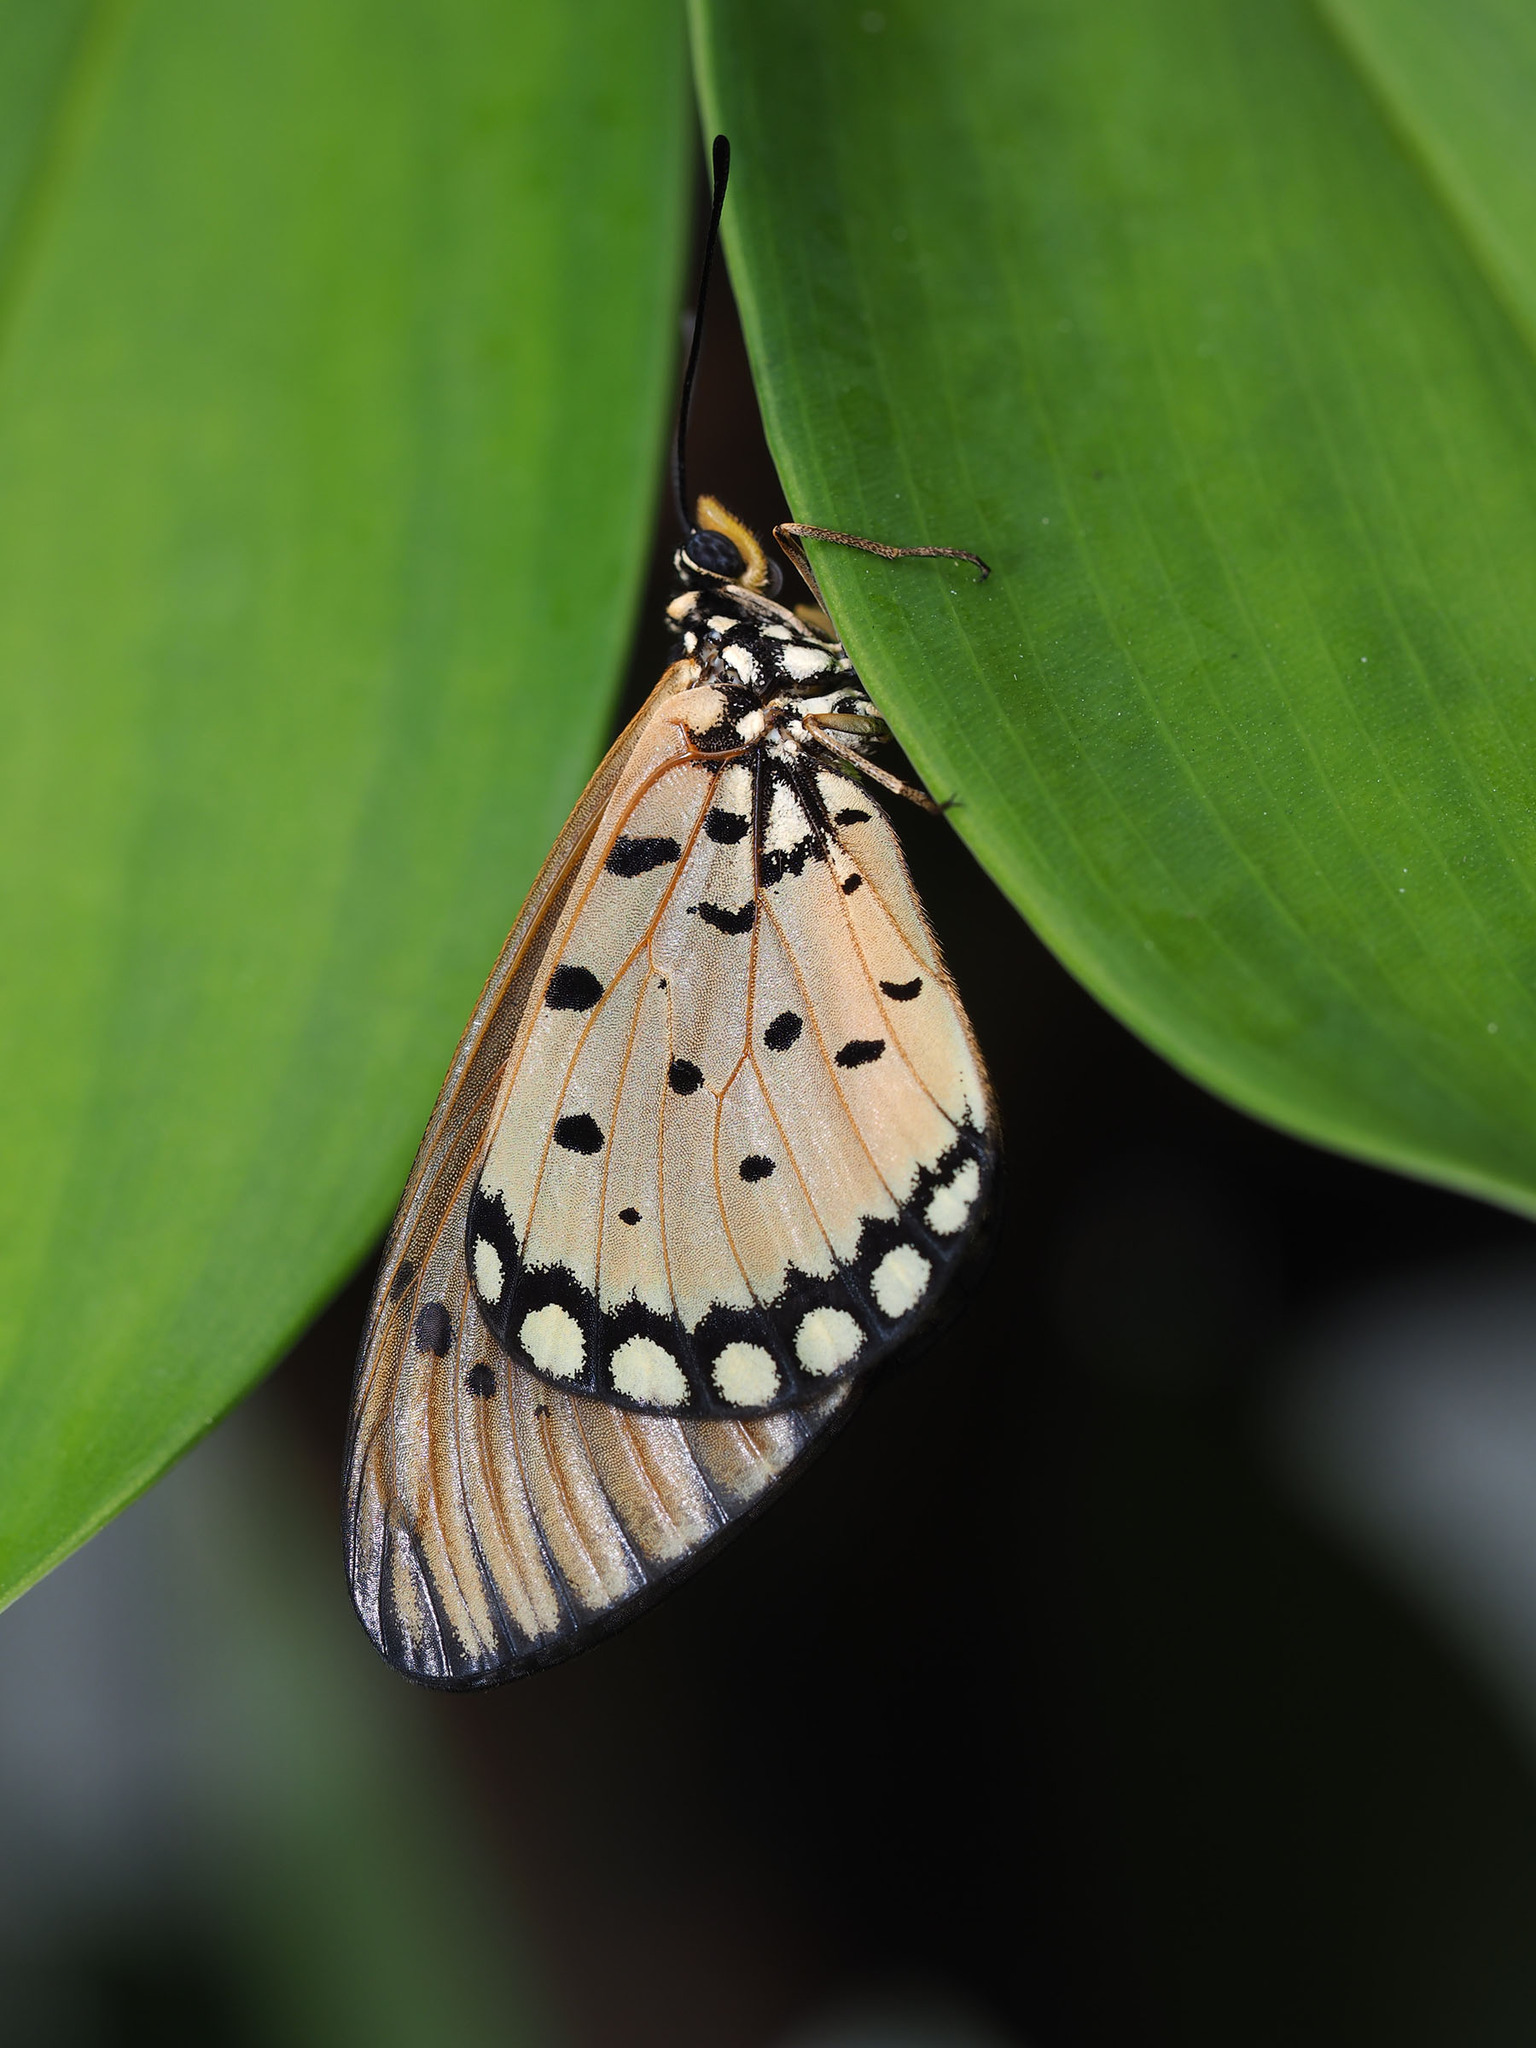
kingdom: Animalia
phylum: Arthropoda
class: Insecta
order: Lepidoptera
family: Nymphalidae
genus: Acraea
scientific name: Acraea terpsicore
